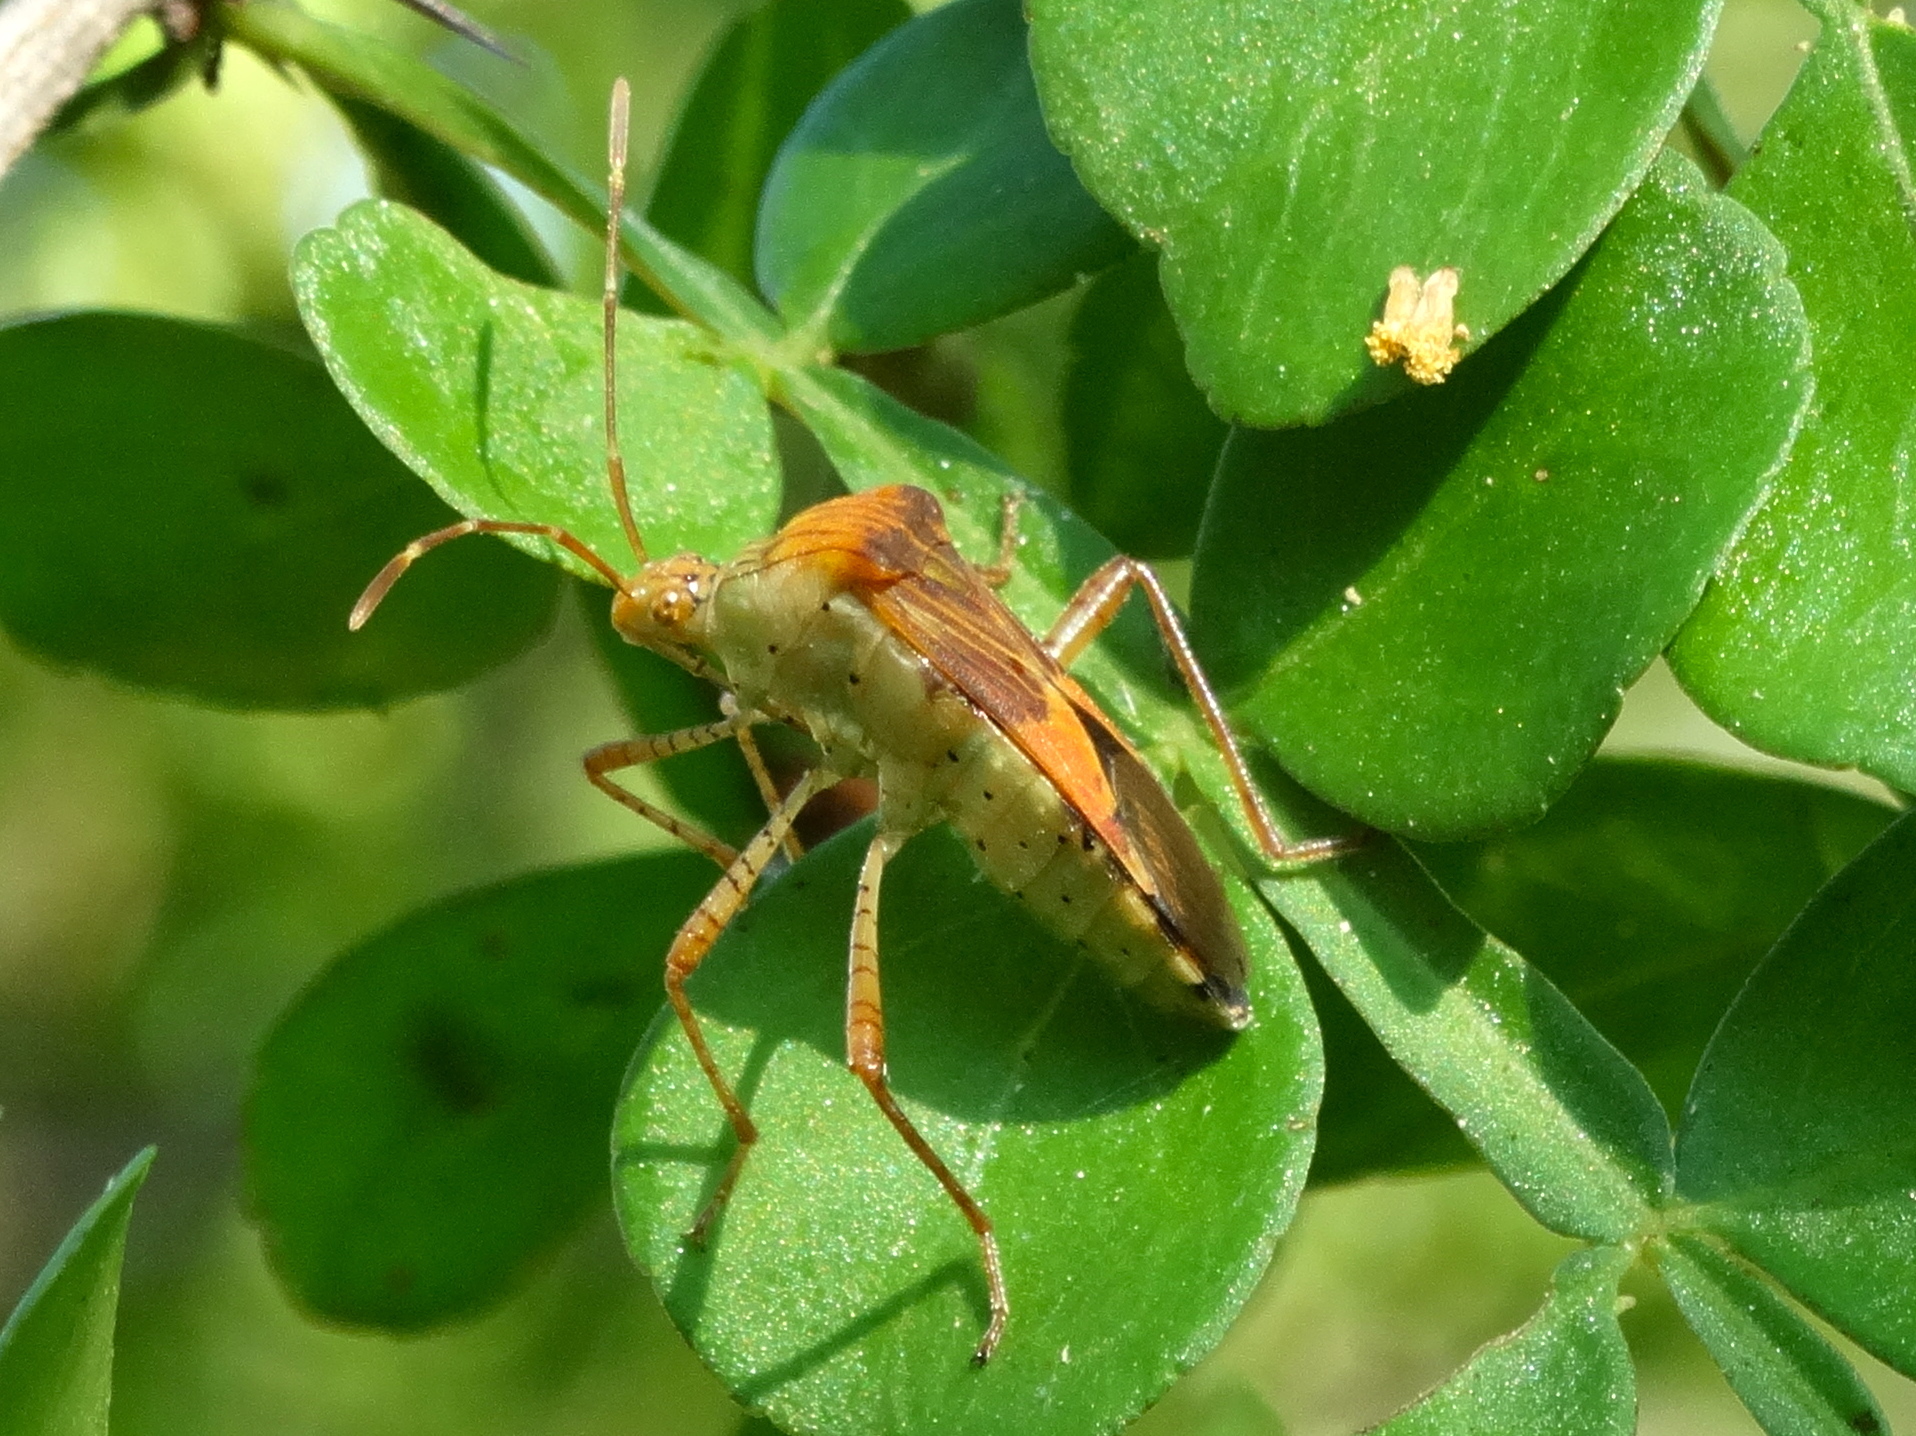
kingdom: Animalia
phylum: Arthropoda
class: Insecta
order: Hemiptera
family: Coreidae
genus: Hypselonotus
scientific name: Hypselonotus punctiventris
